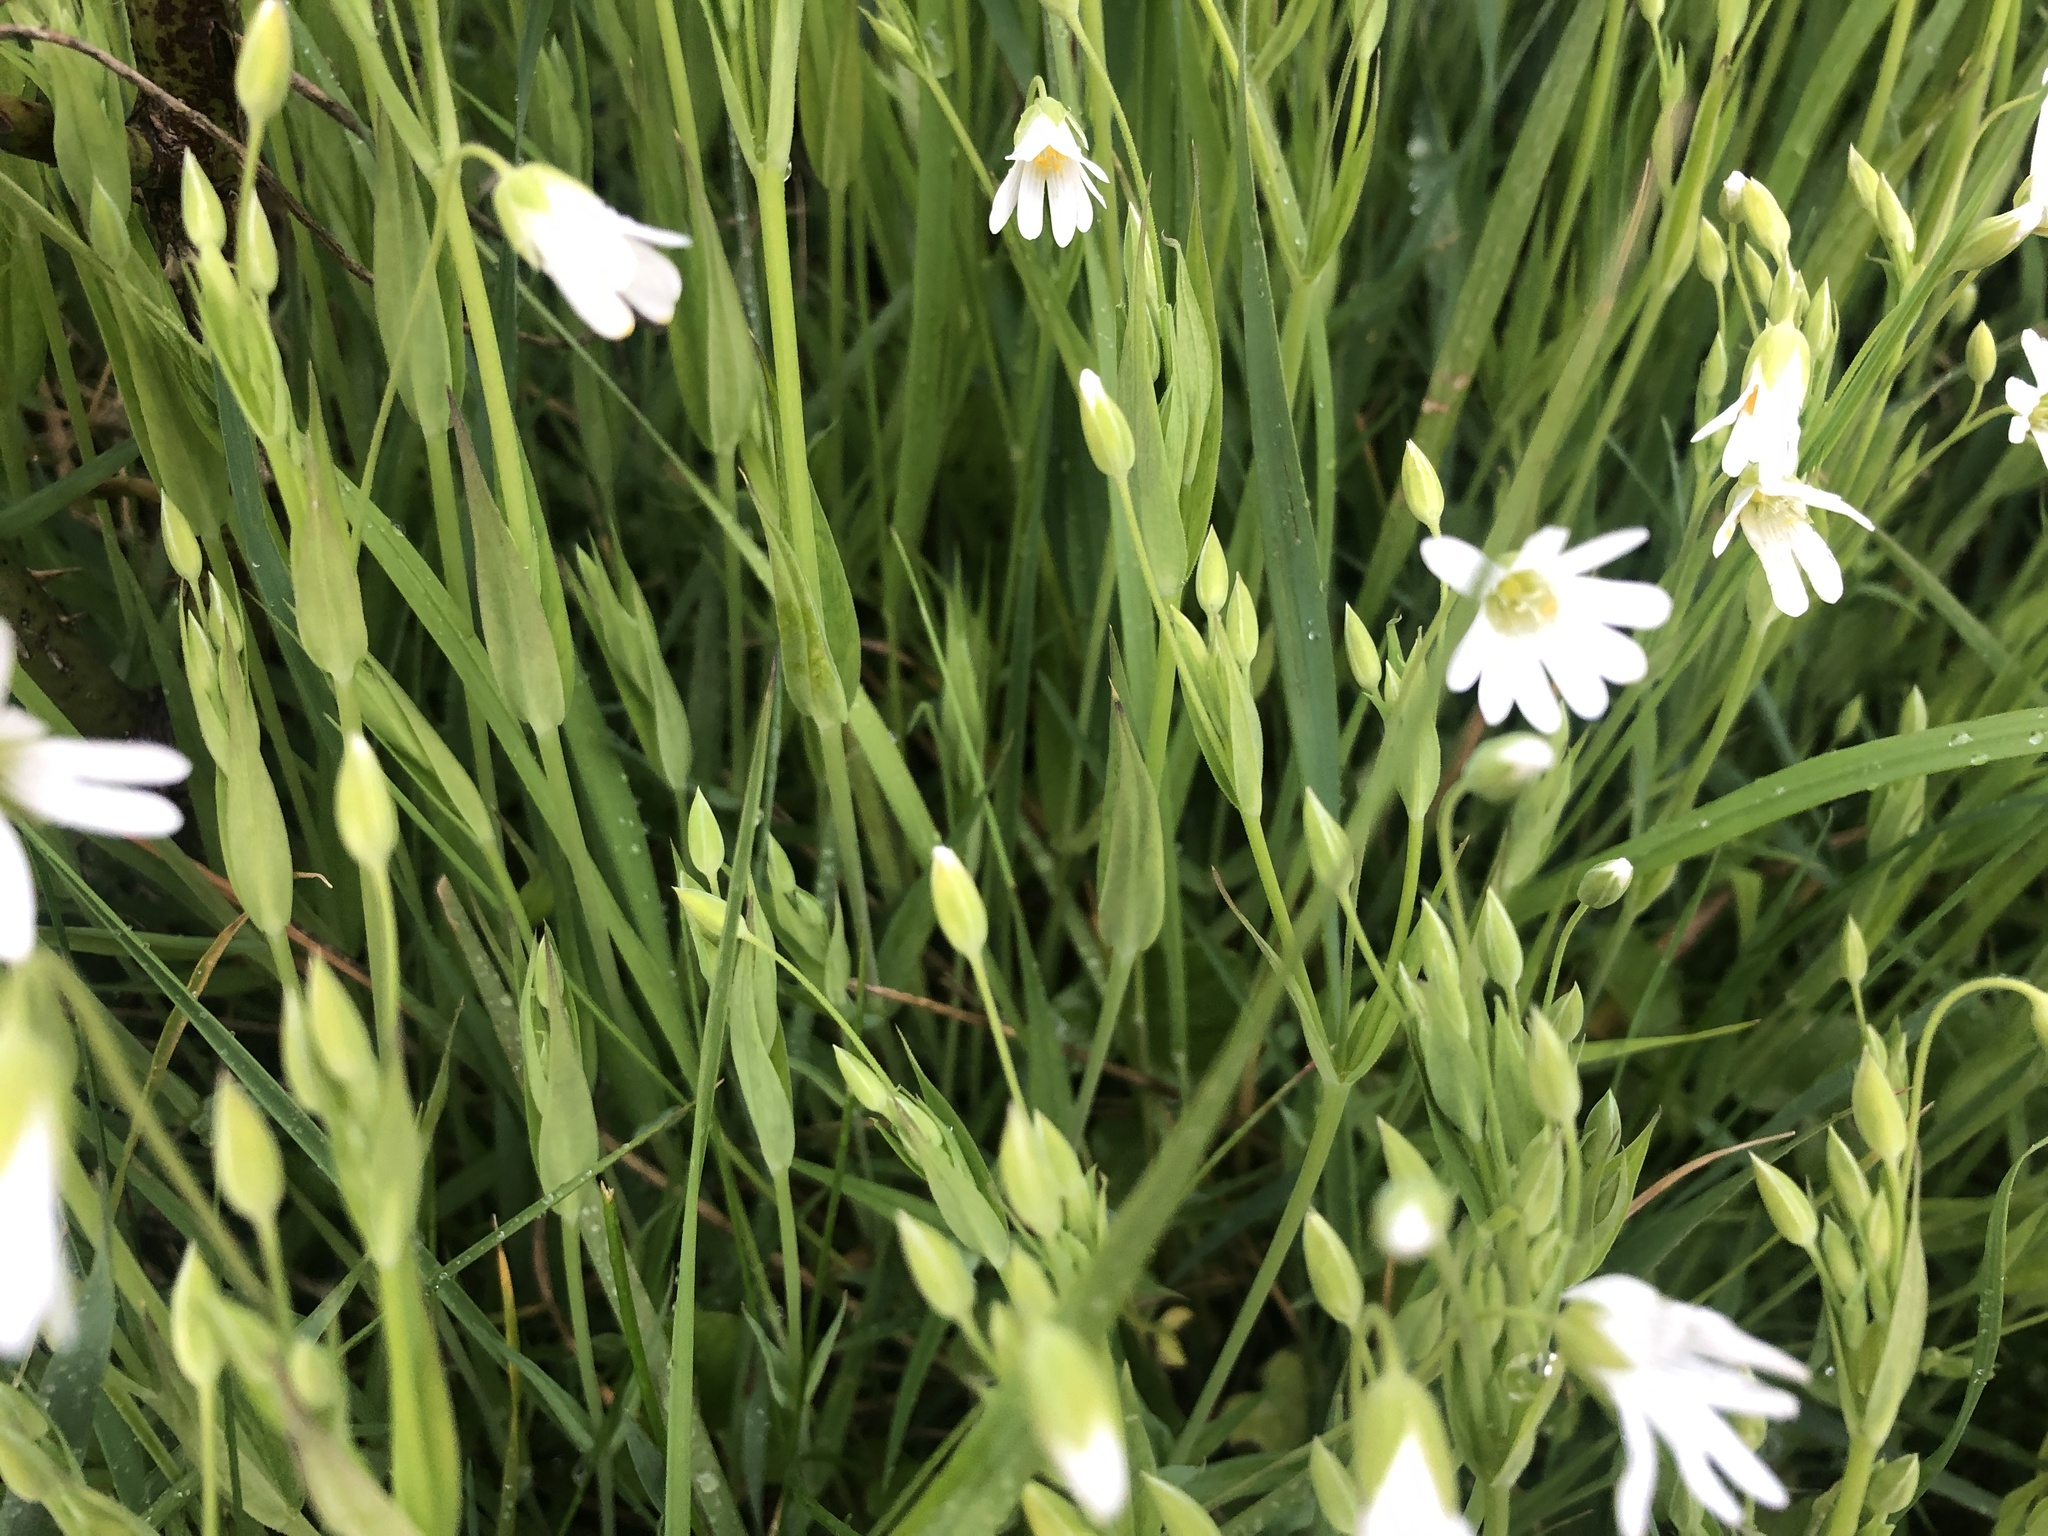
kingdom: Plantae
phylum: Tracheophyta
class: Magnoliopsida
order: Caryophyllales
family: Caryophyllaceae
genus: Rabelera
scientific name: Rabelera holostea
